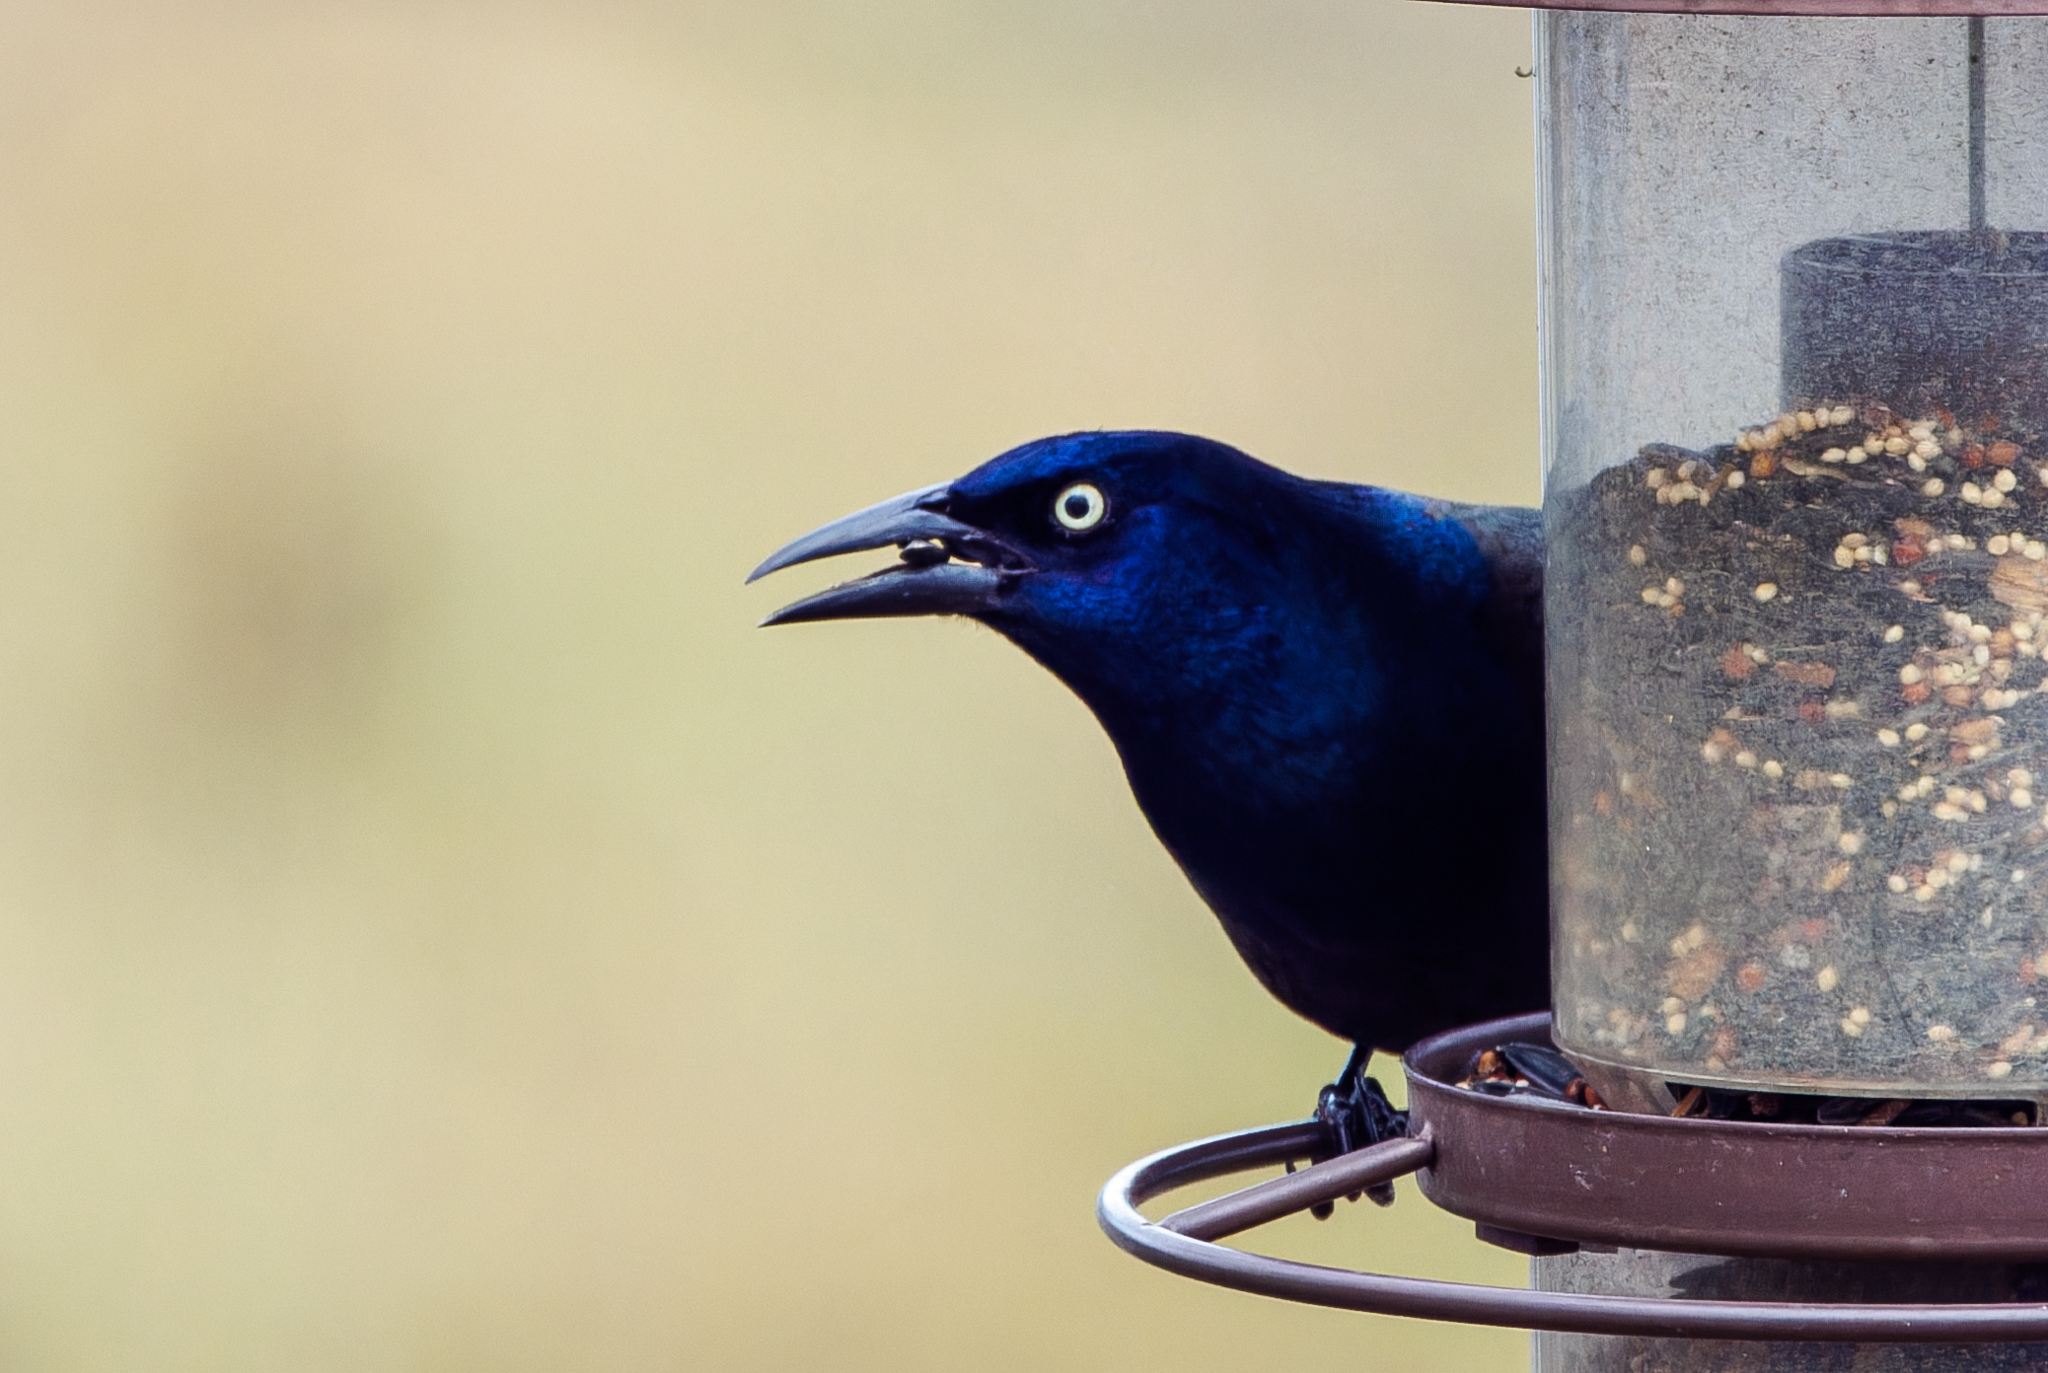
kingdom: Animalia
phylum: Chordata
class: Aves
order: Passeriformes
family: Icteridae
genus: Quiscalus
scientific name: Quiscalus quiscula
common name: Common grackle
